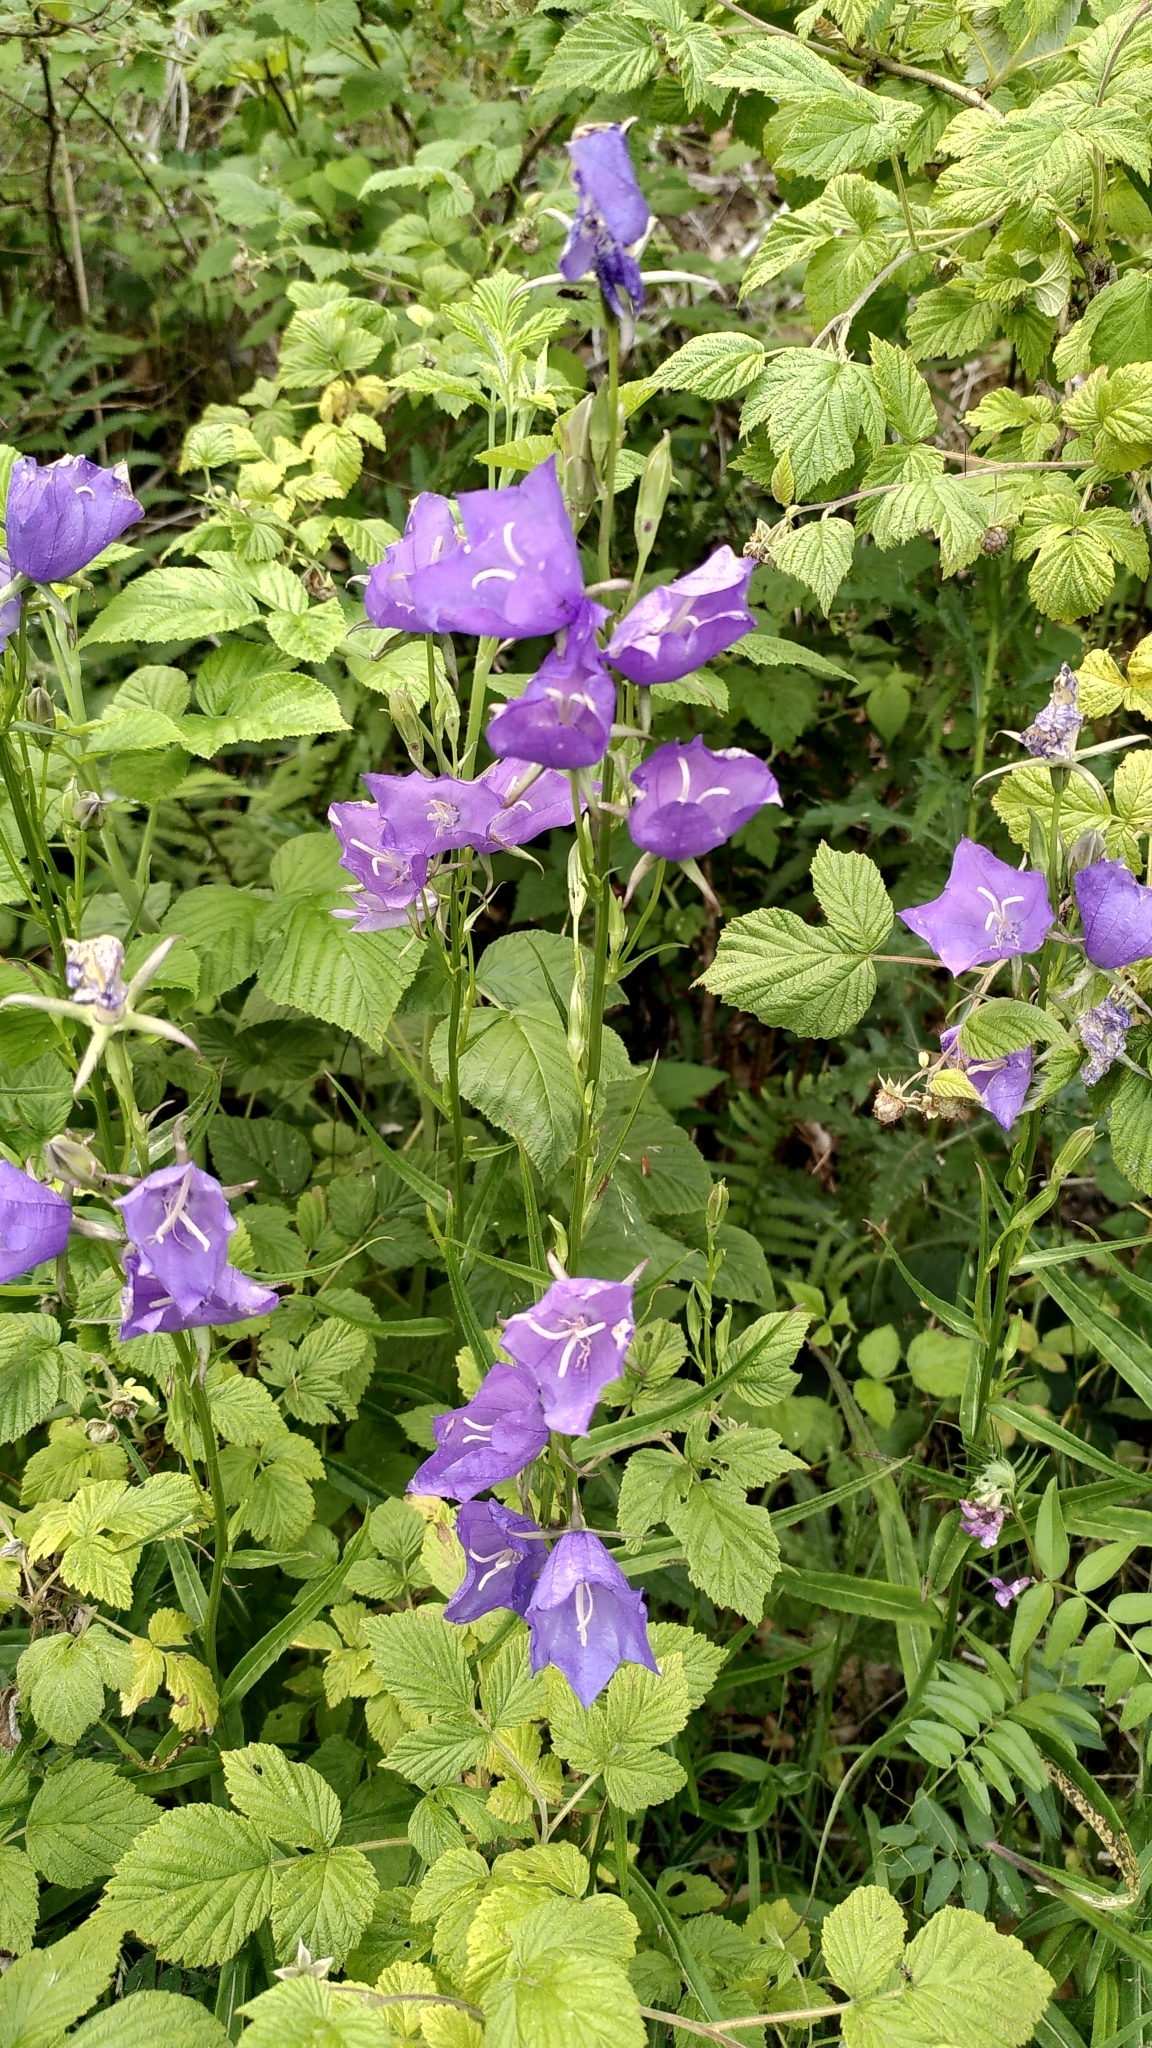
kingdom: Plantae
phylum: Tracheophyta
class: Magnoliopsida
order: Asterales
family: Campanulaceae
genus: Campanula
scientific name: Campanula persicifolia
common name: Peach-leaved bellflower
